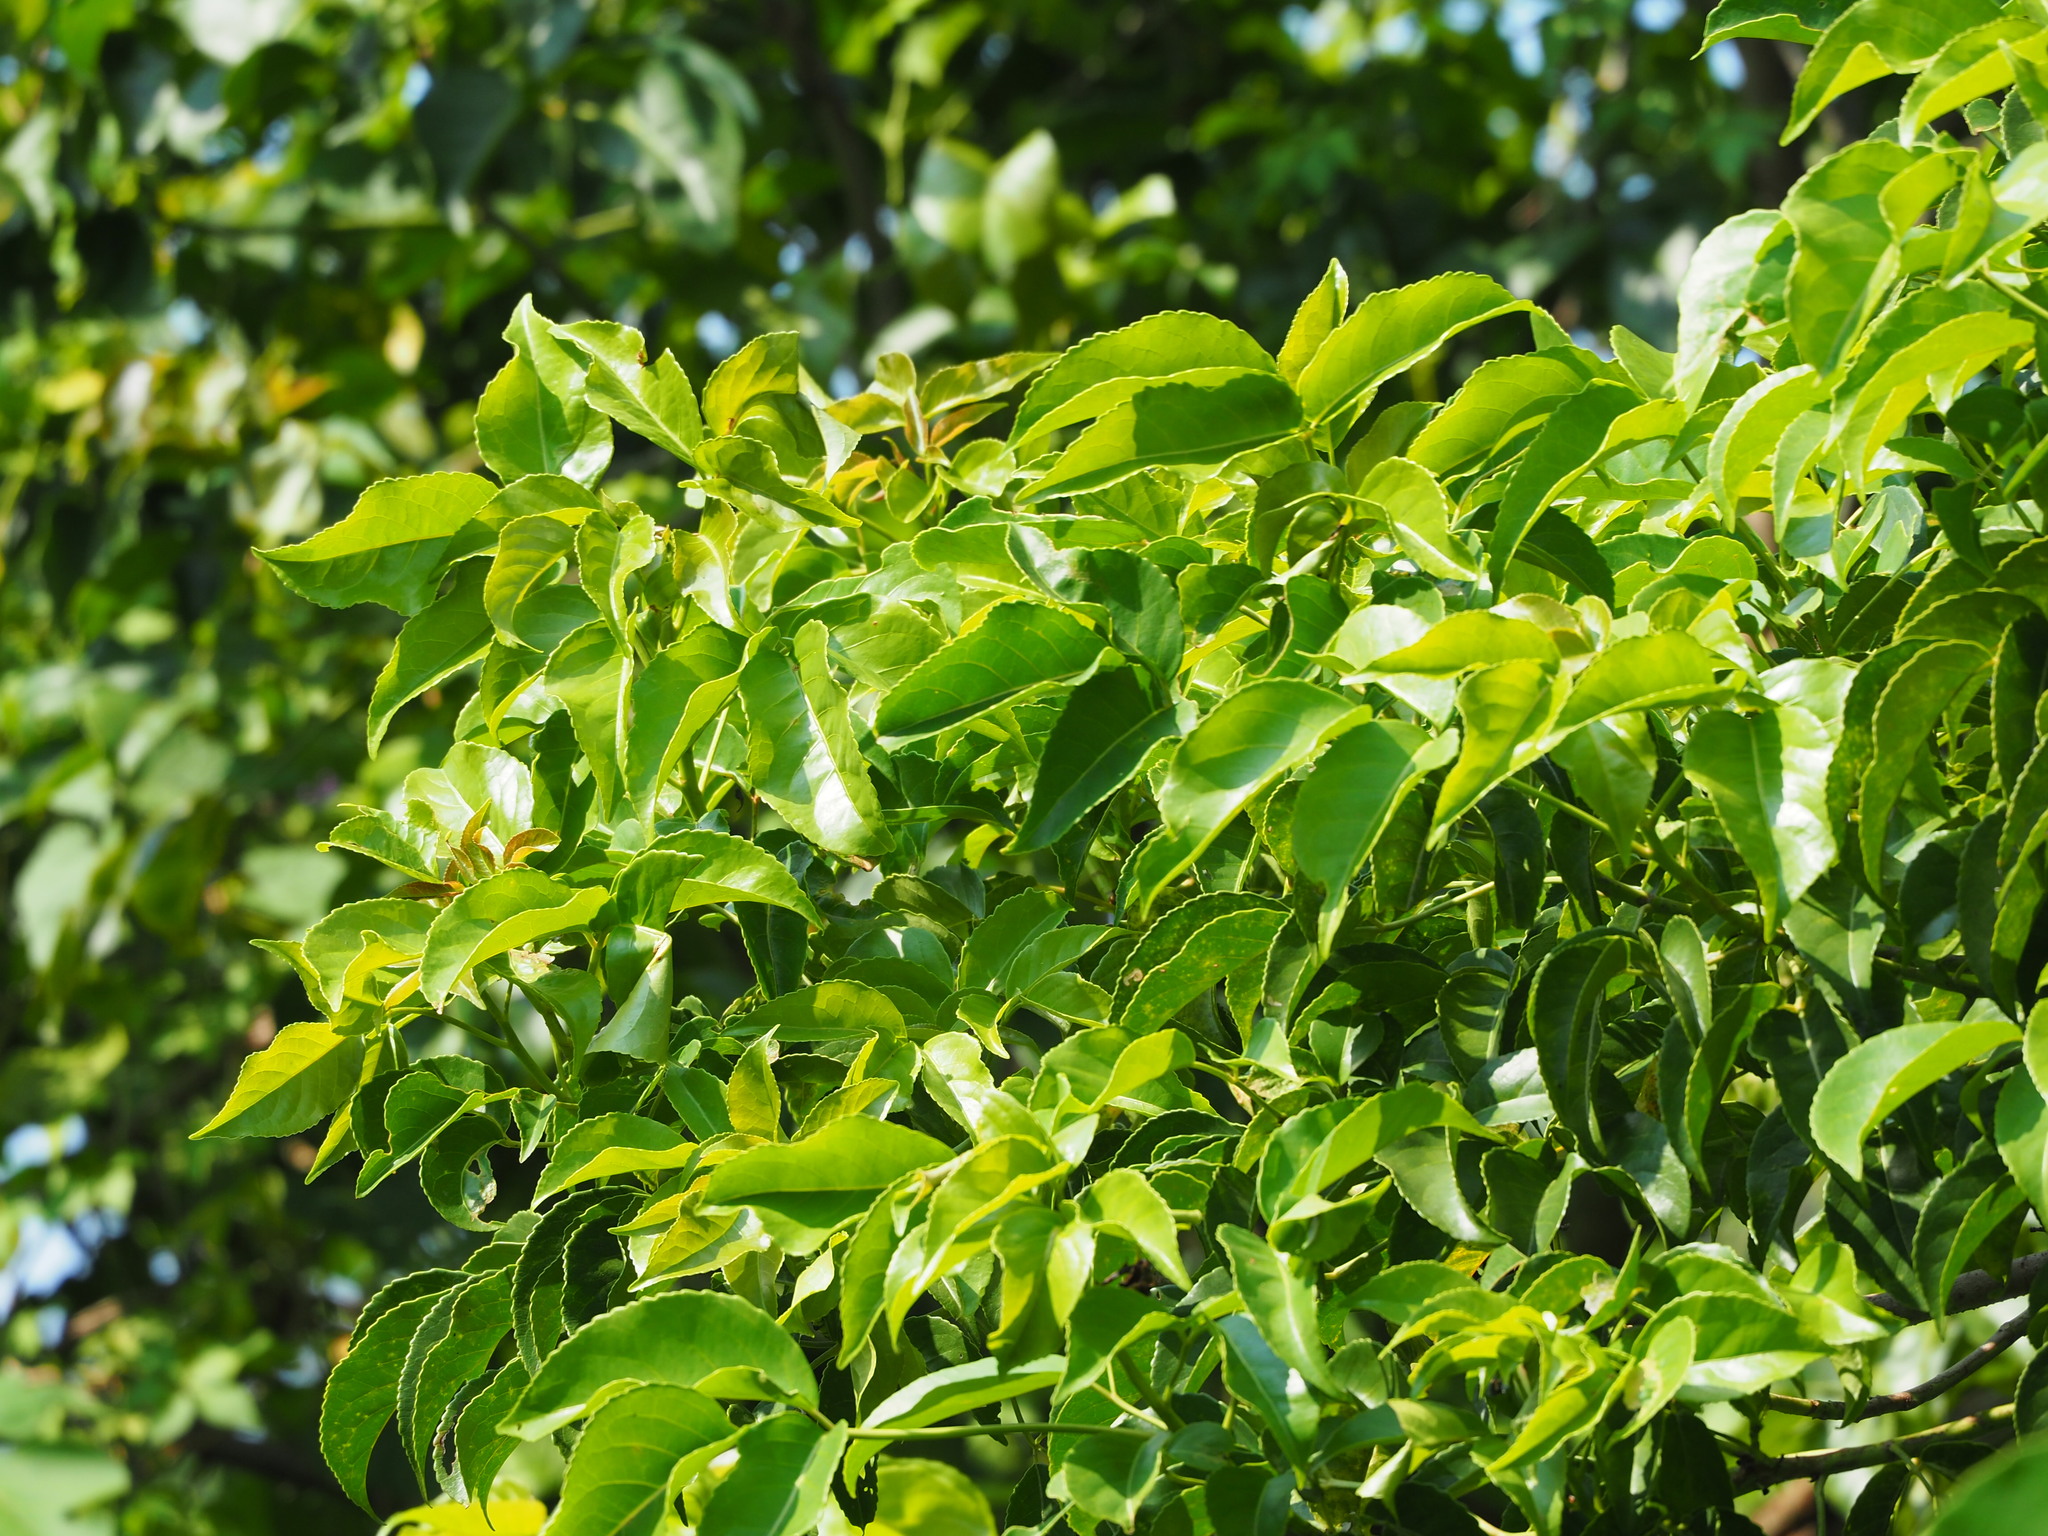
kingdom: Plantae
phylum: Tracheophyta
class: Magnoliopsida
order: Malpighiales
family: Phyllanthaceae
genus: Bischofia
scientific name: Bischofia javanica
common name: Javanese bishopwood
